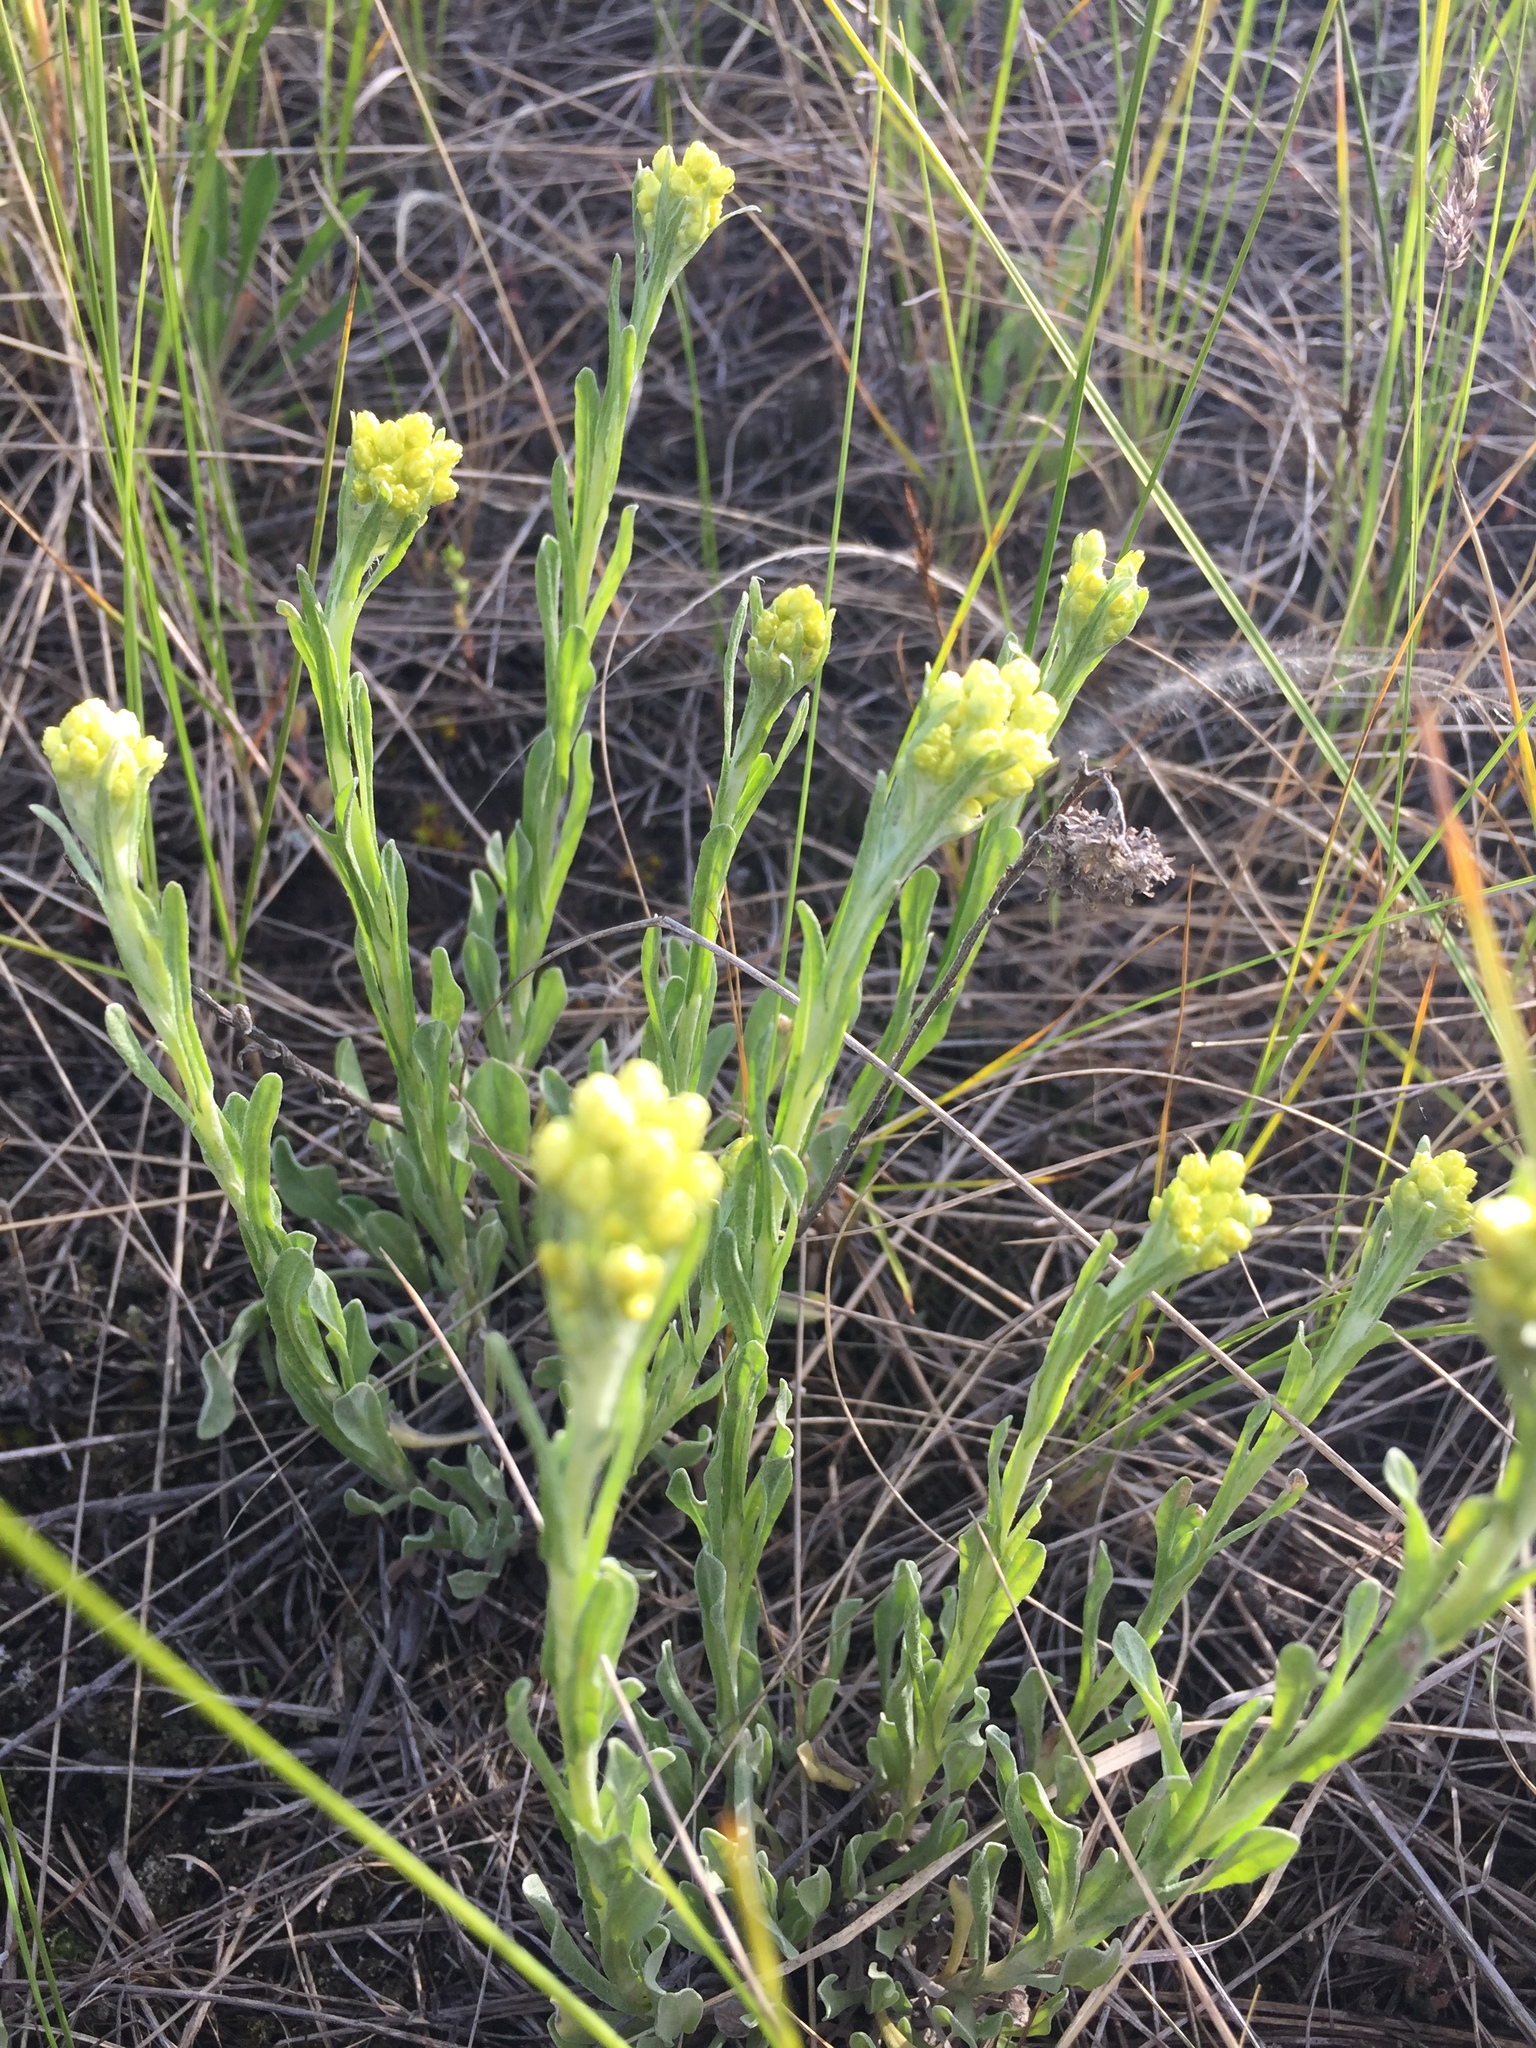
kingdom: Plantae
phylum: Tracheophyta
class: Magnoliopsida
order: Asterales
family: Asteraceae
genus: Helichrysum
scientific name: Helichrysum arenarium
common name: Strawflower
